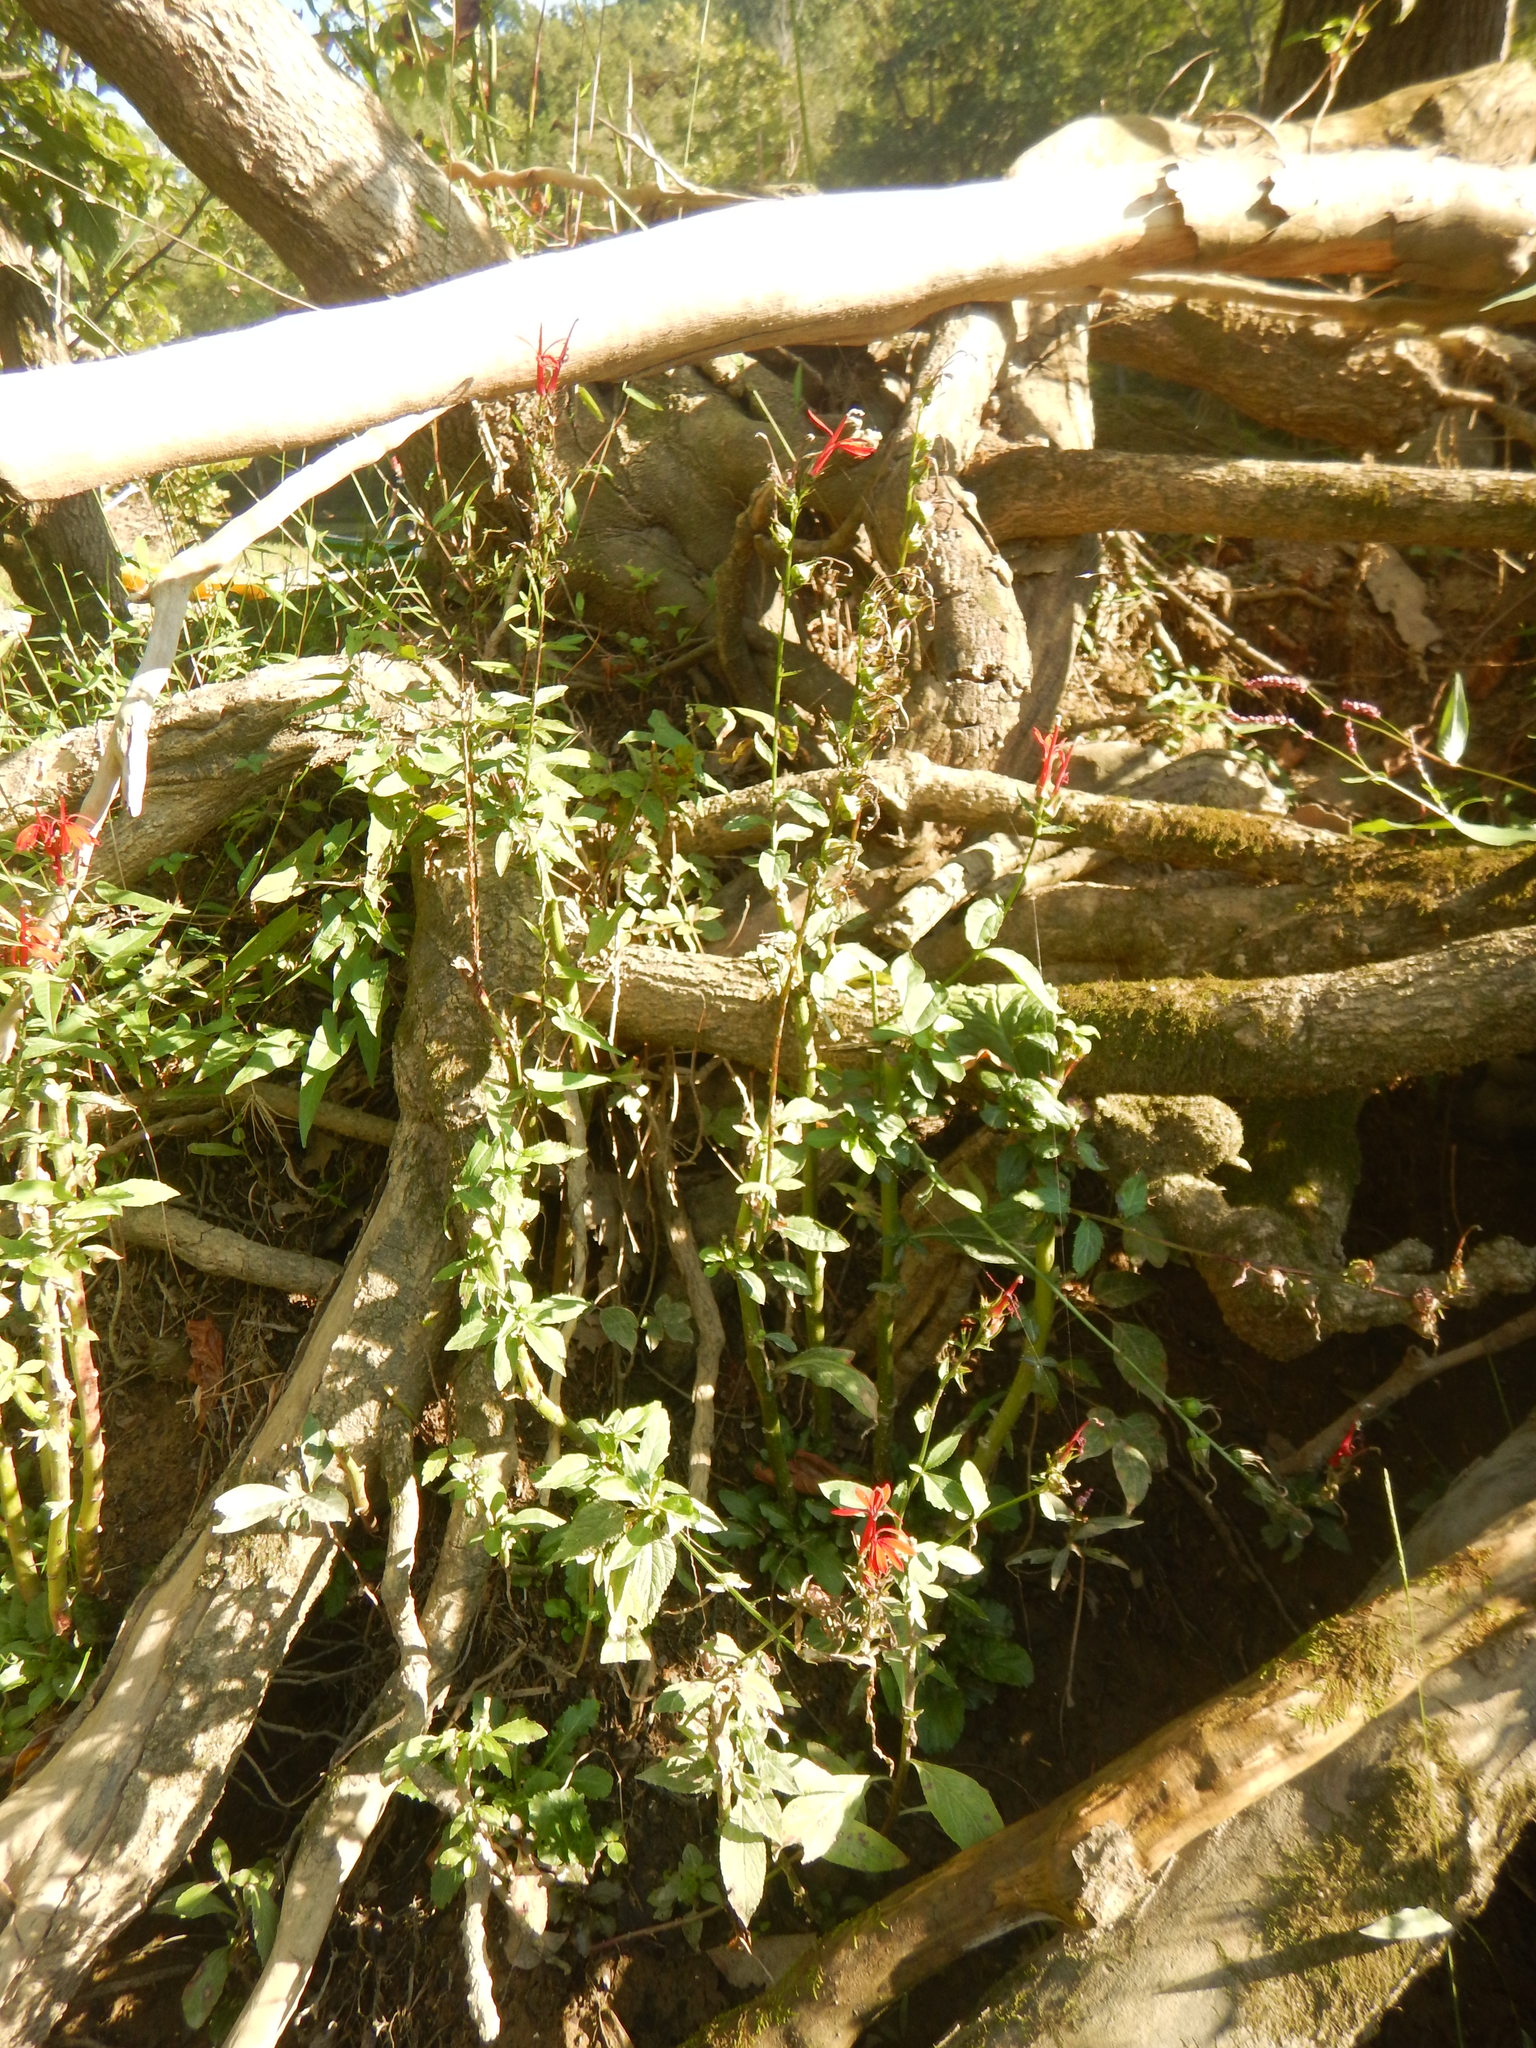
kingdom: Plantae
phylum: Tracheophyta
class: Magnoliopsida
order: Asterales
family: Campanulaceae
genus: Lobelia
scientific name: Lobelia cardinalis
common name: Cardinal flower
